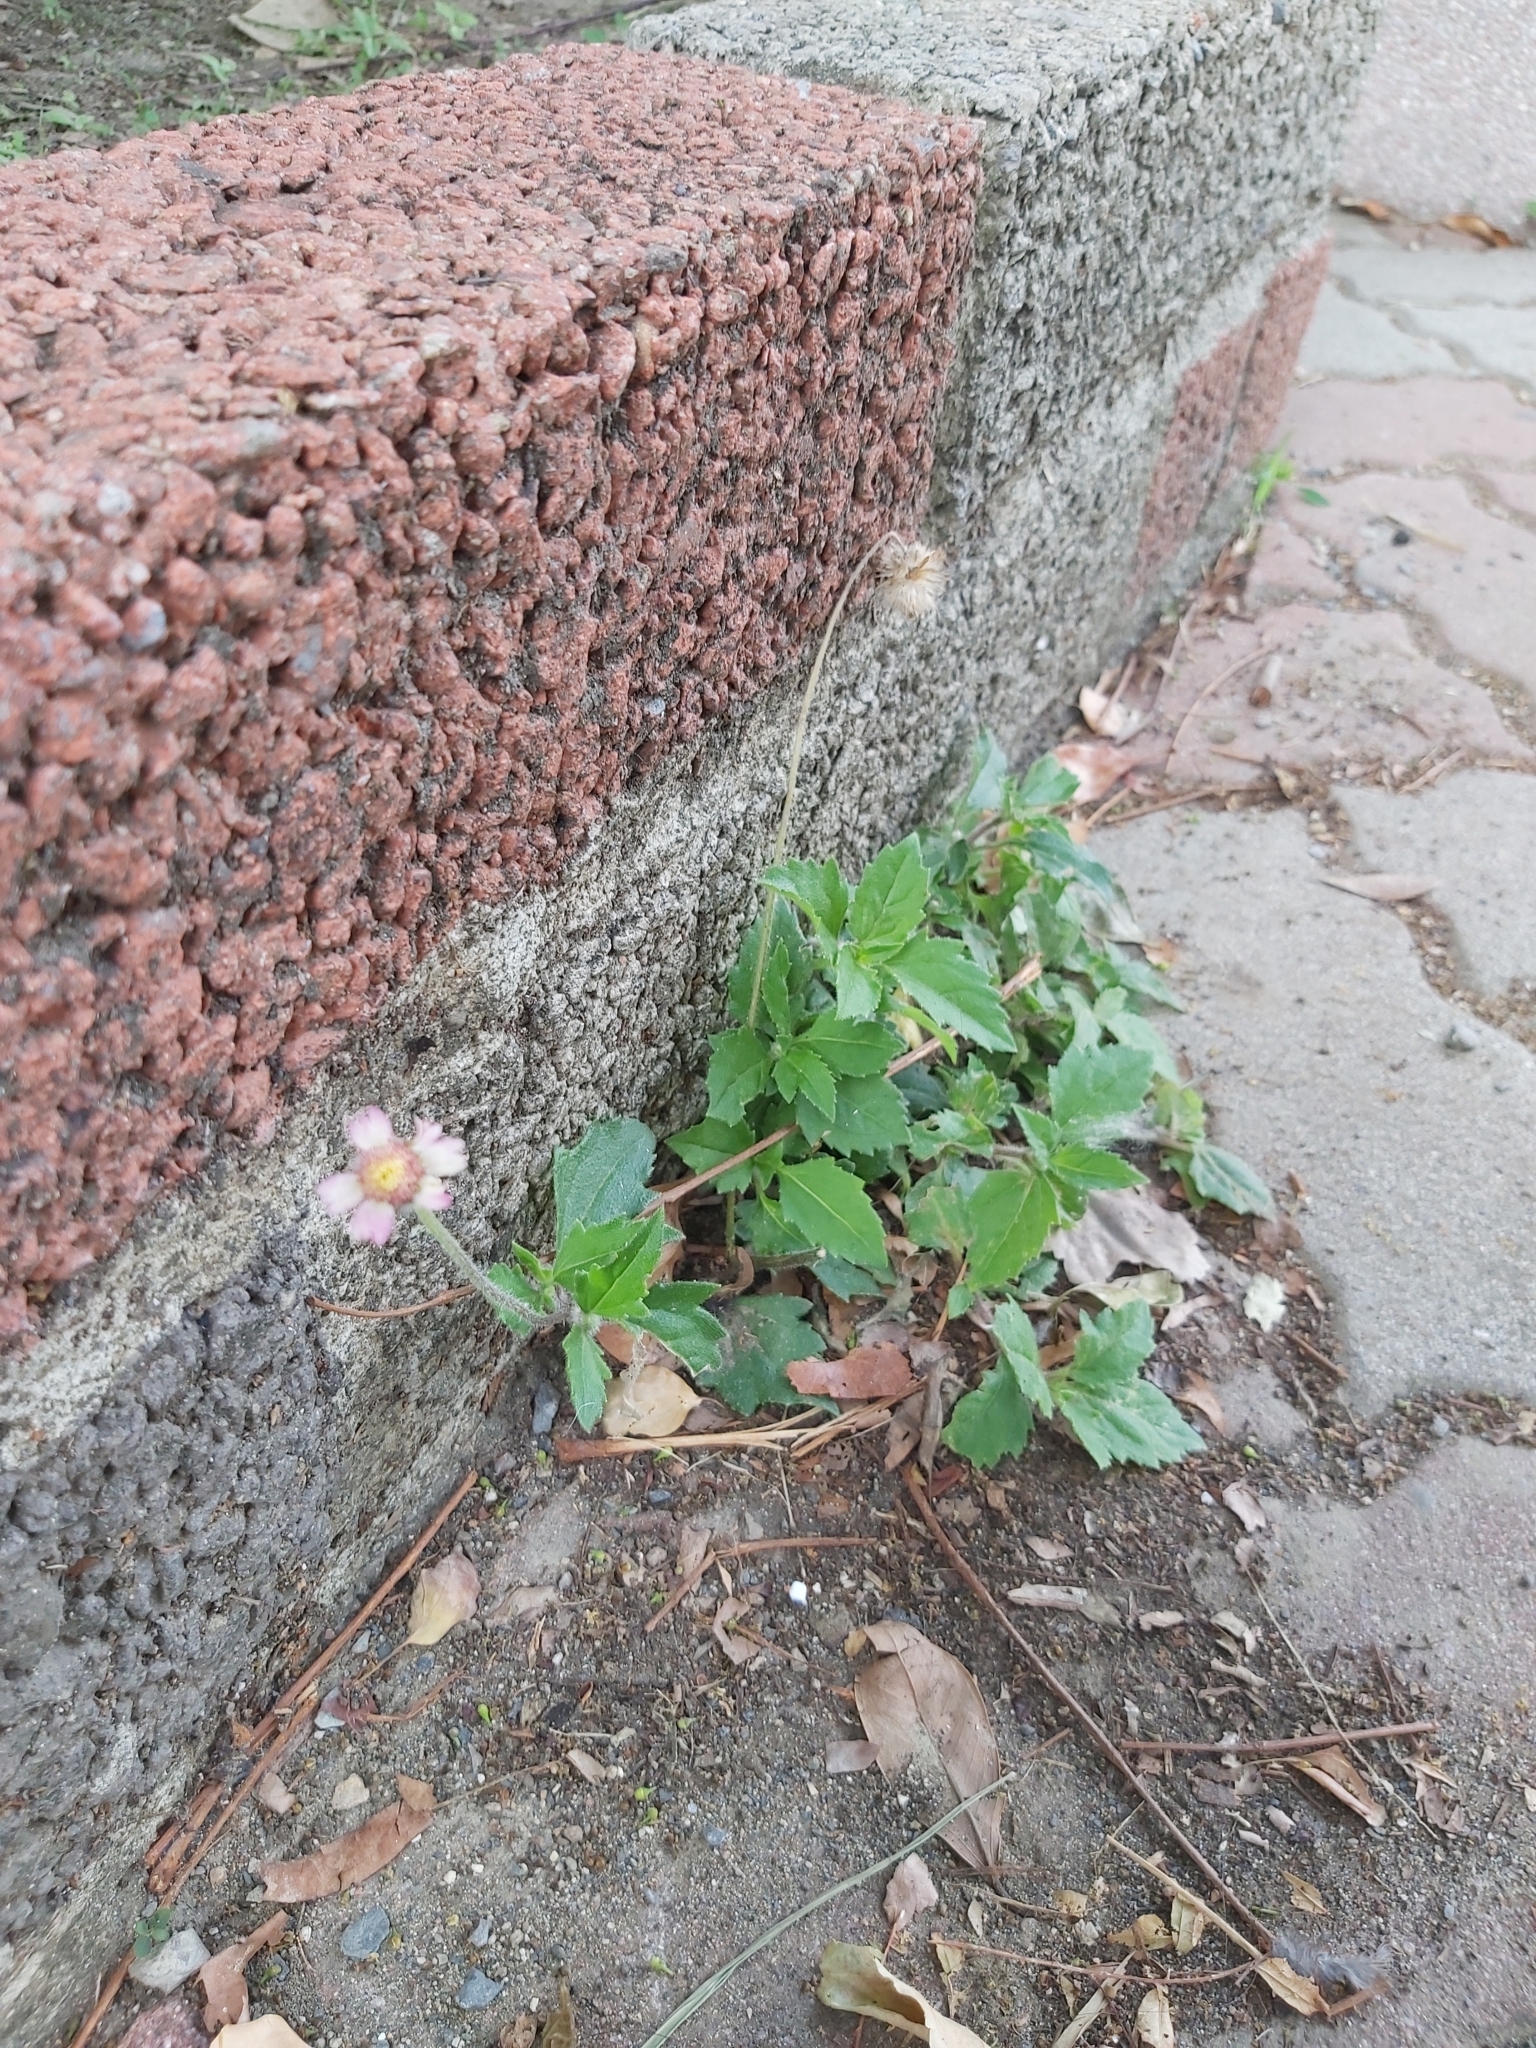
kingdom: Plantae
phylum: Tracheophyta
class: Magnoliopsida
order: Asterales
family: Asteraceae
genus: Tridax
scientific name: Tridax procumbens
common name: Coatbuttons
